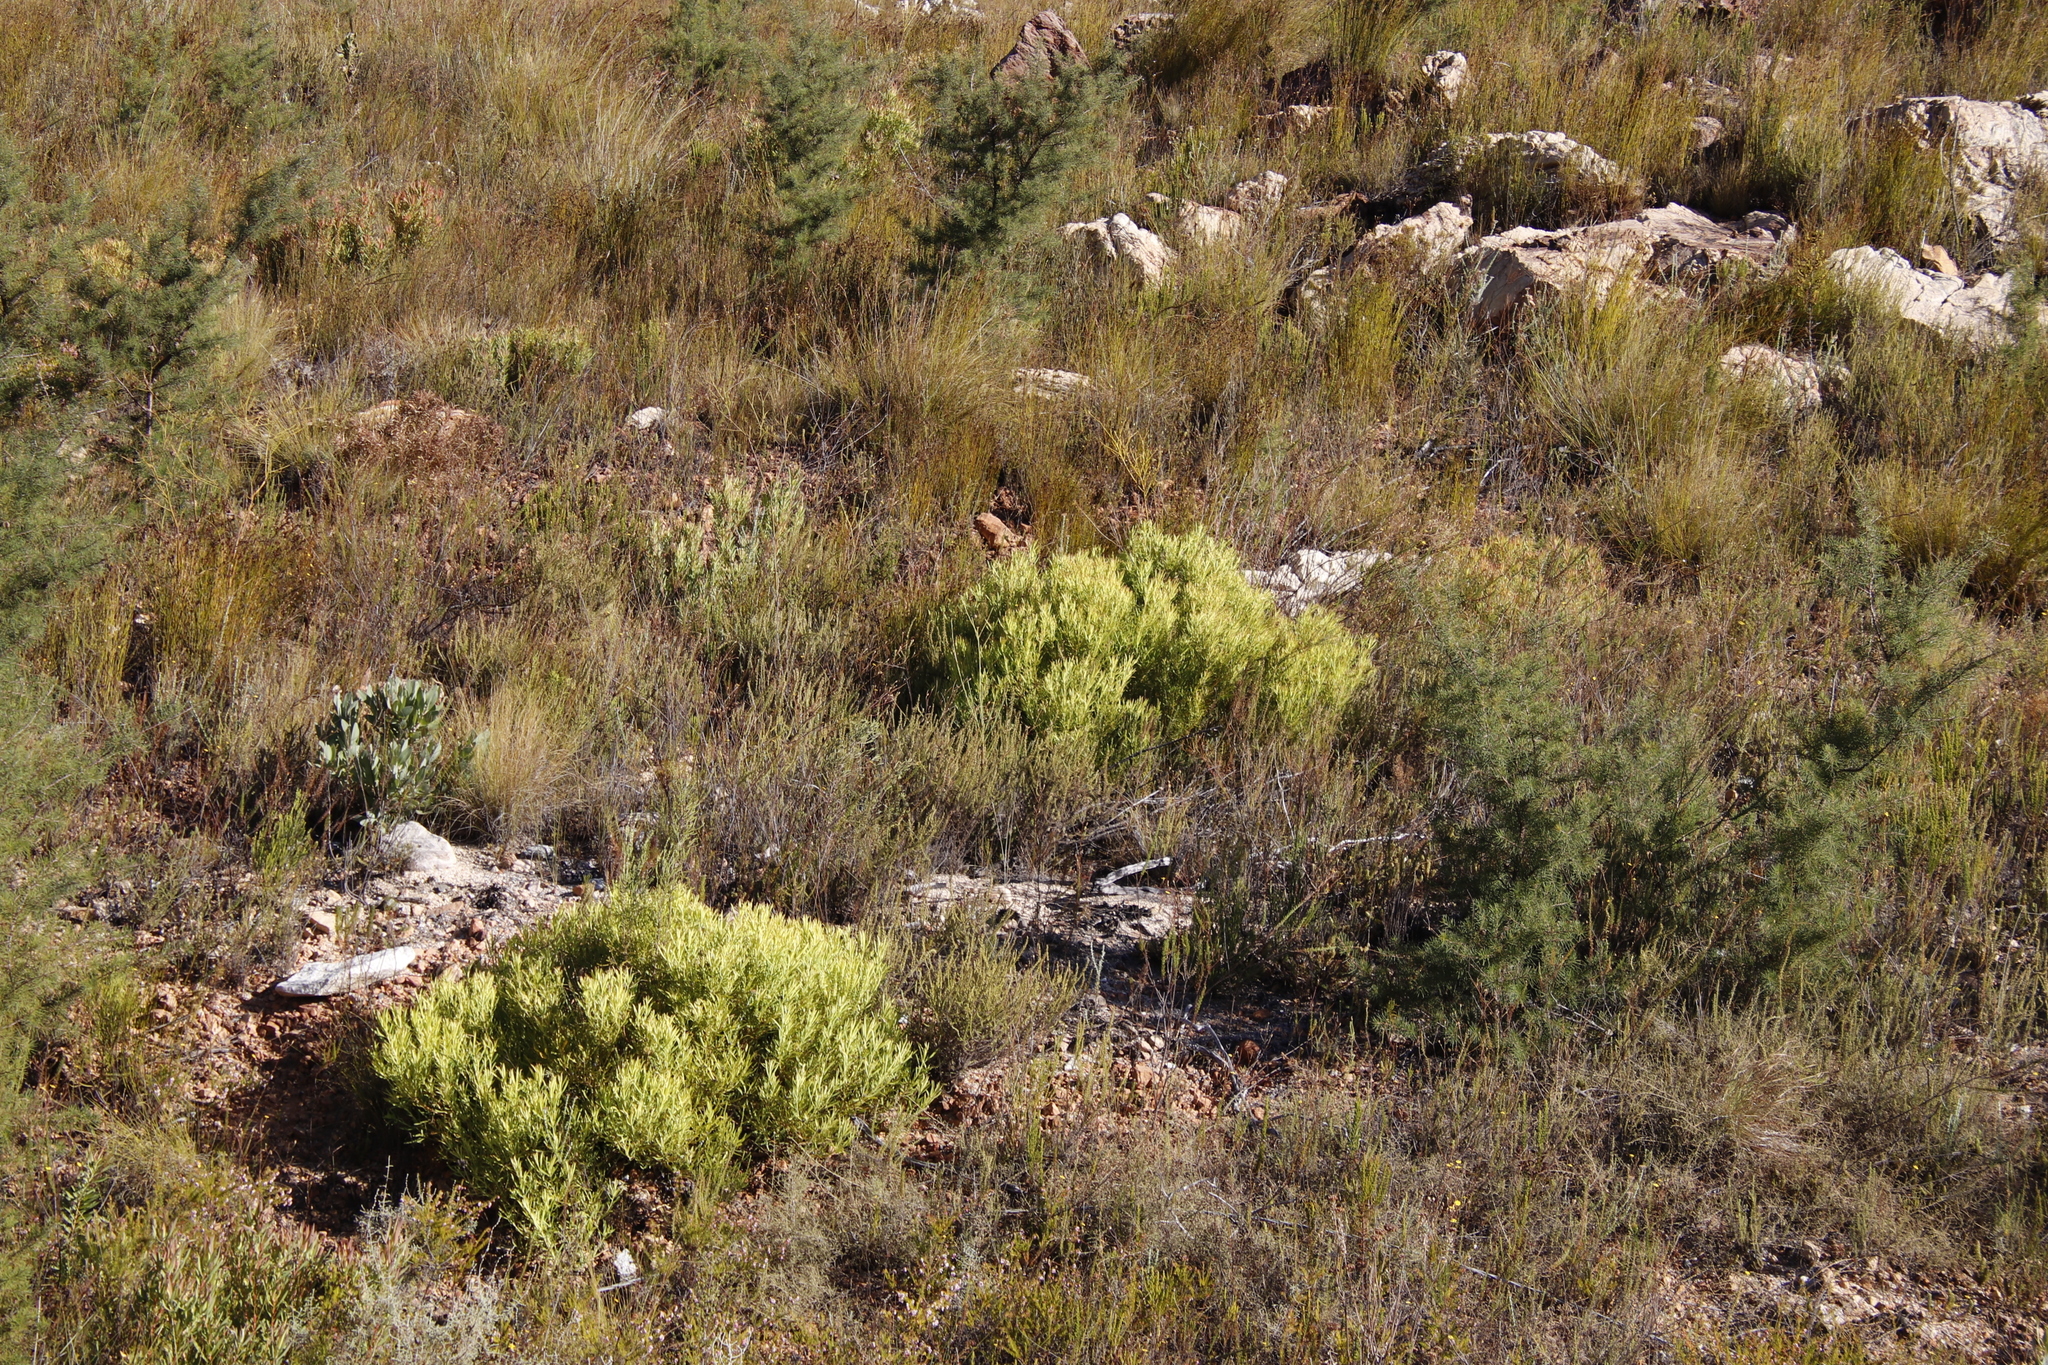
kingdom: Plantae
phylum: Tracheophyta
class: Magnoliopsida
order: Proteales
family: Proteaceae
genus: Leucadendron
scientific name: Leucadendron salignum
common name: Common sunshine conebush
